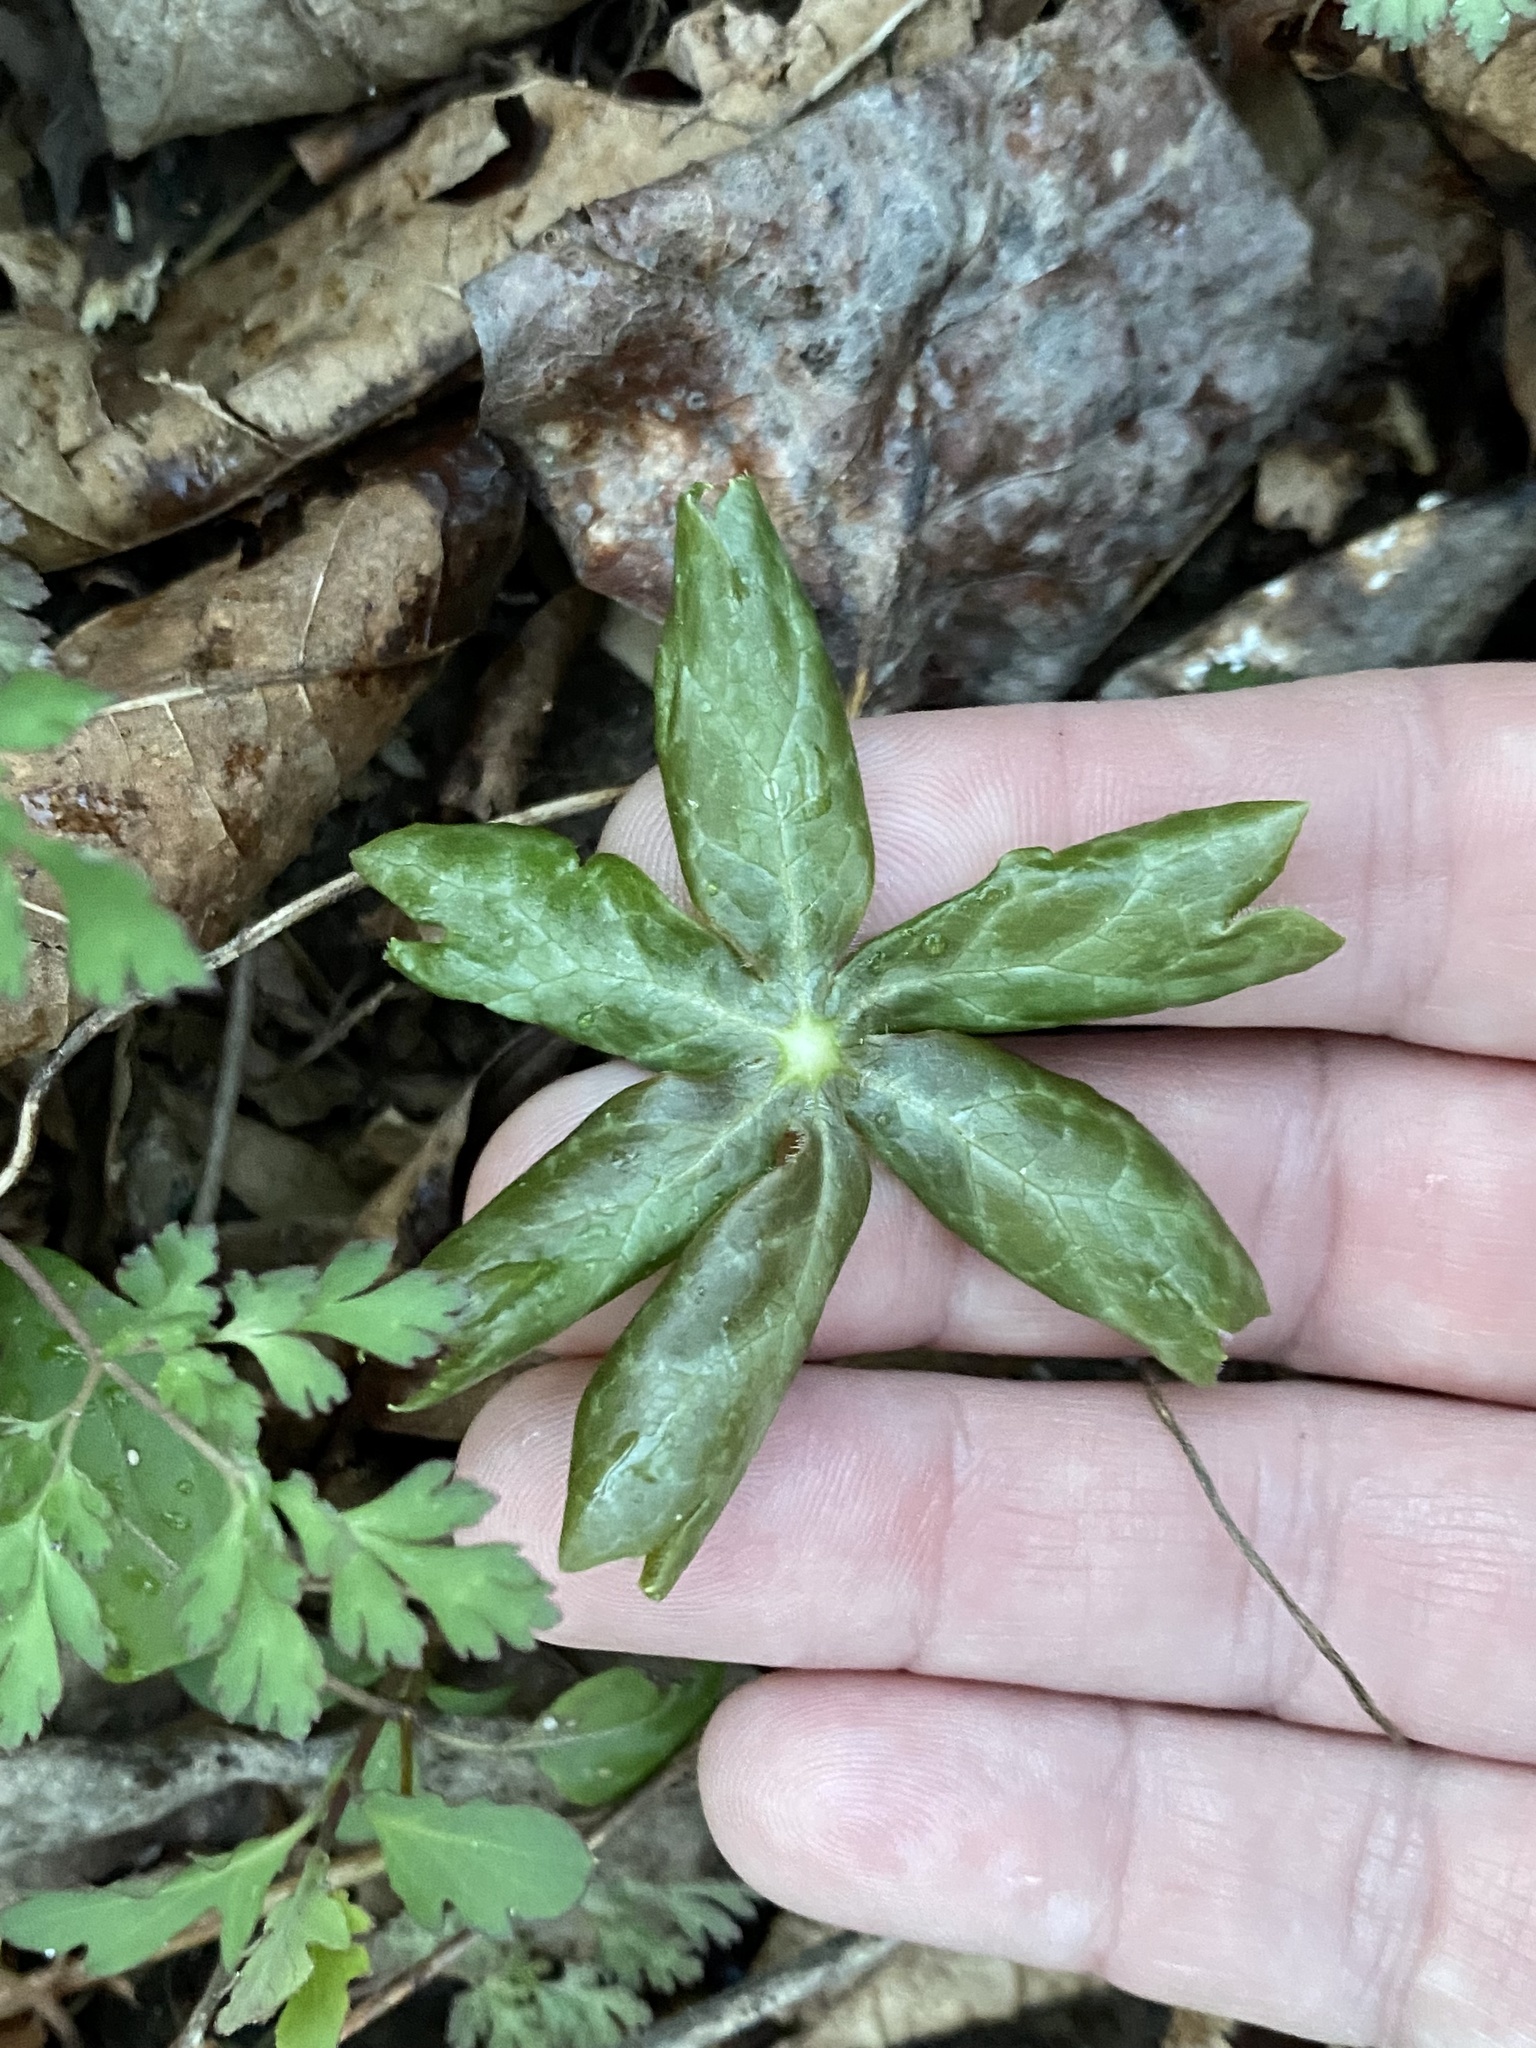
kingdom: Plantae
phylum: Tracheophyta
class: Magnoliopsida
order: Ranunculales
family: Berberidaceae
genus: Podophyllum
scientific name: Podophyllum peltatum
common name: Wild mandrake
